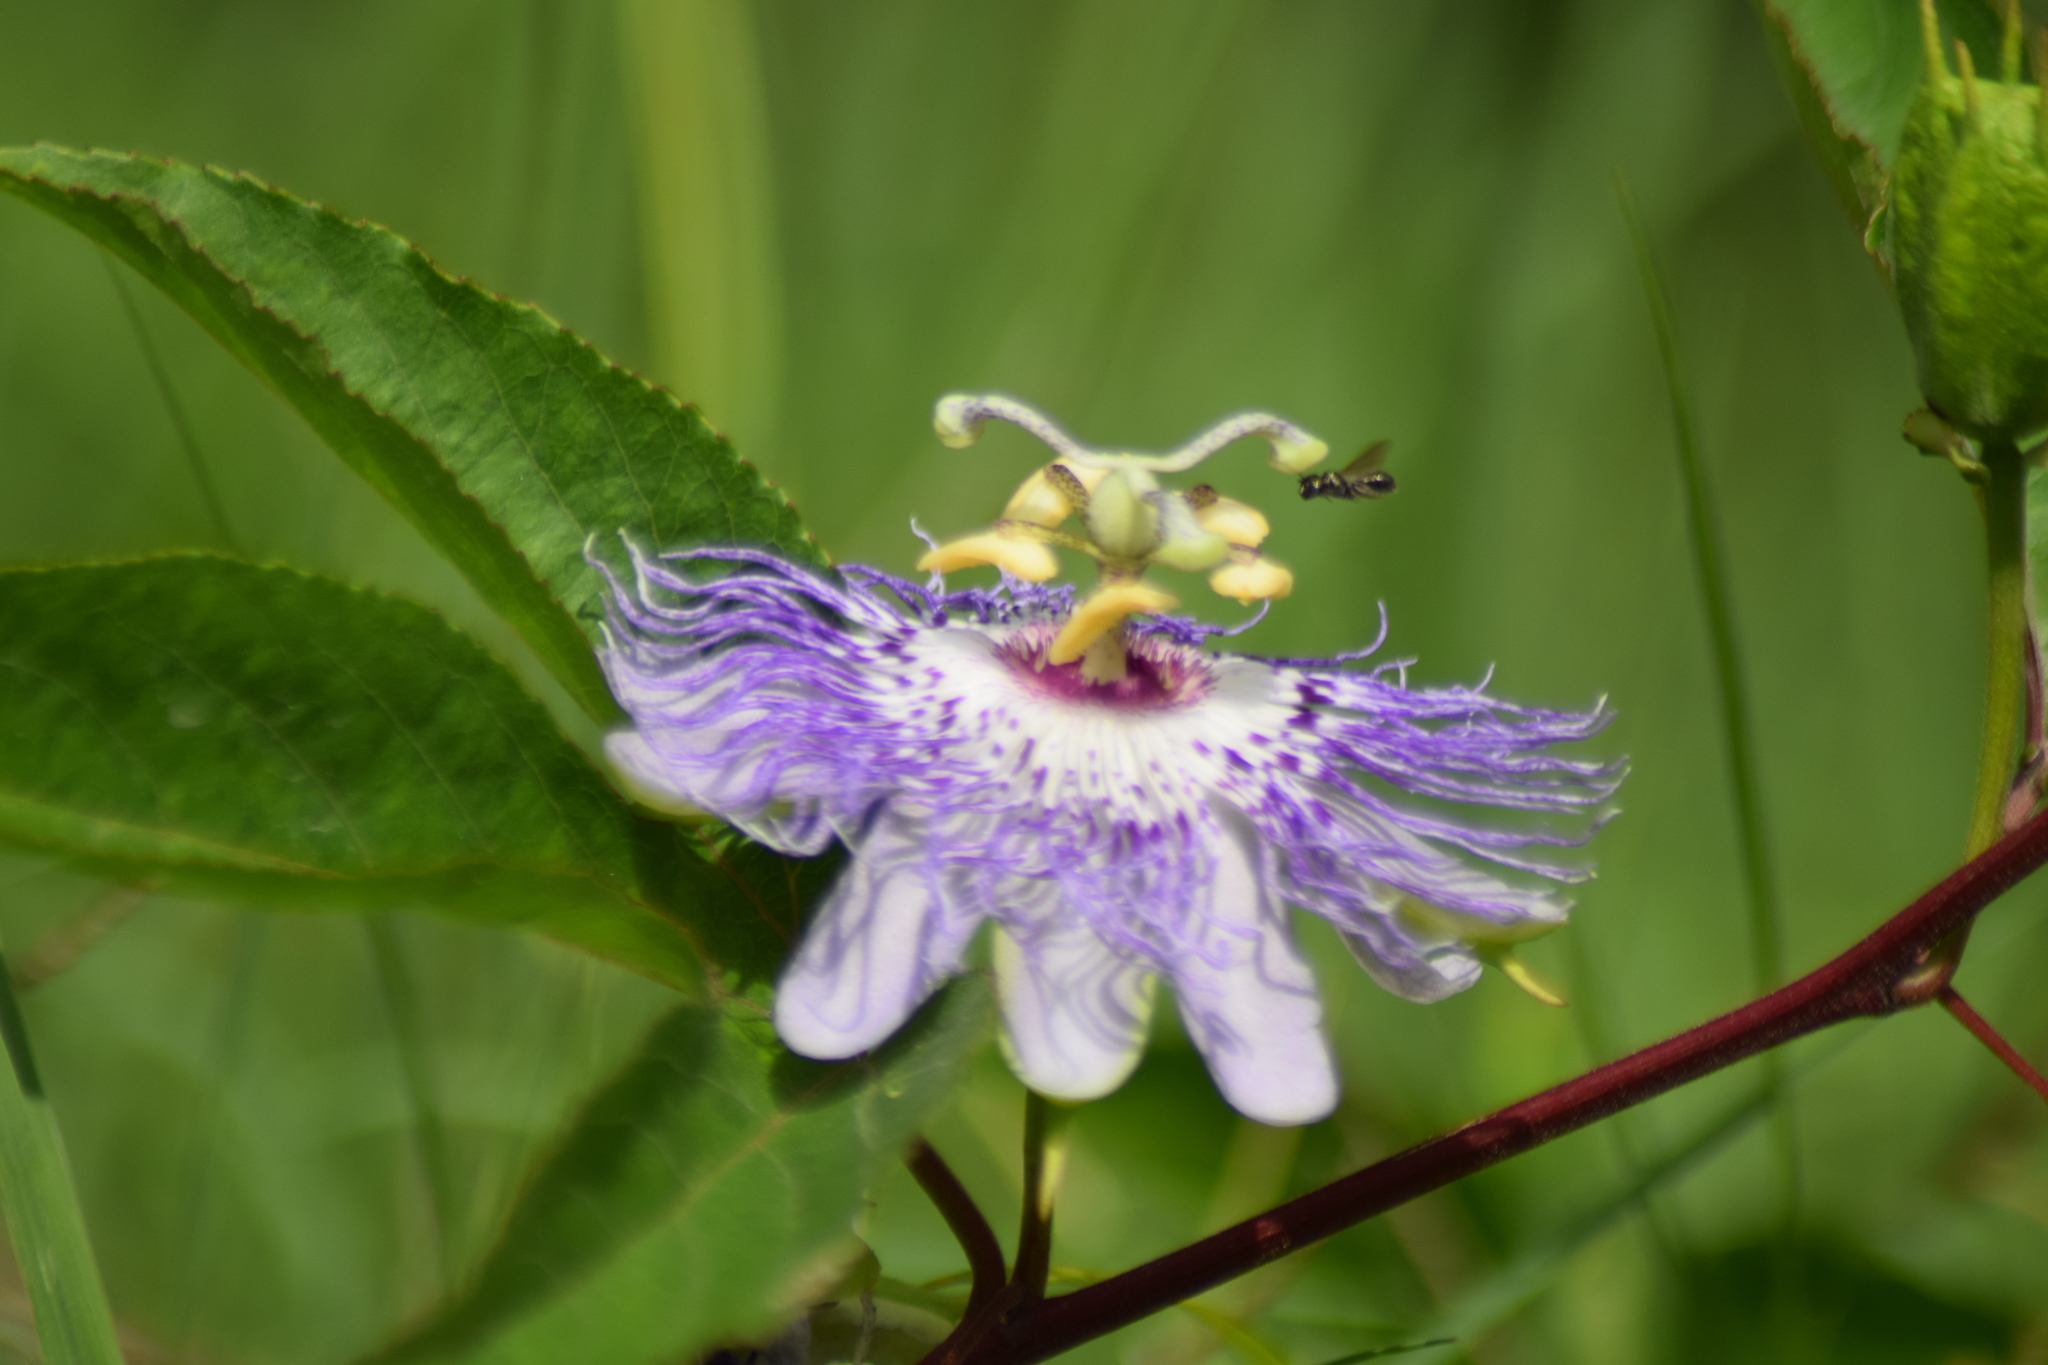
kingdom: Plantae
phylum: Tracheophyta
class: Magnoliopsida
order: Malpighiales
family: Passifloraceae
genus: Passiflora
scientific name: Passiflora incarnata
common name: Apricot-vine
